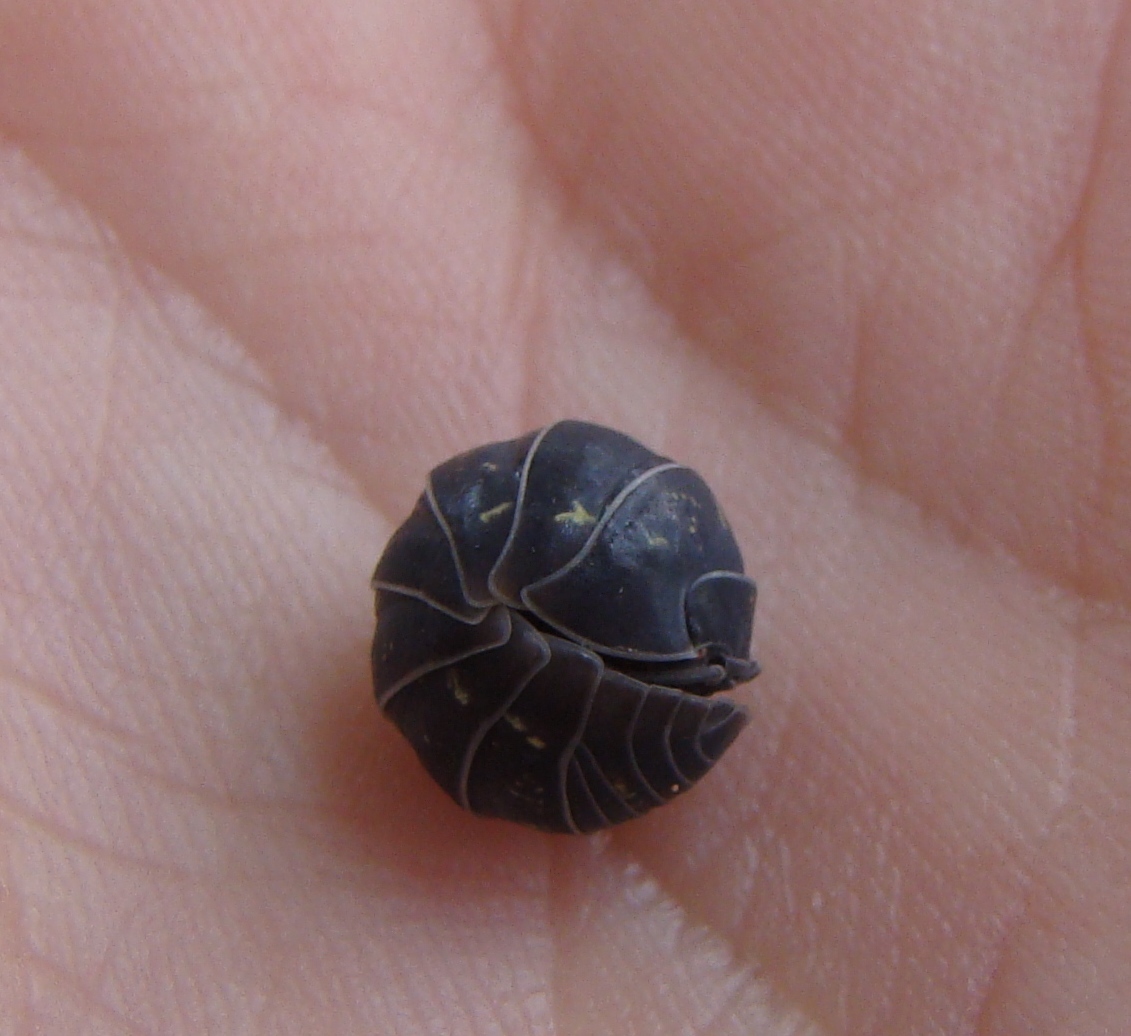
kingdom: Animalia
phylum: Arthropoda
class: Malacostraca
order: Isopoda
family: Armadillidiidae
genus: Armadillidium
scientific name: Armadillidium vulgare
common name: Common pill woodlouse
